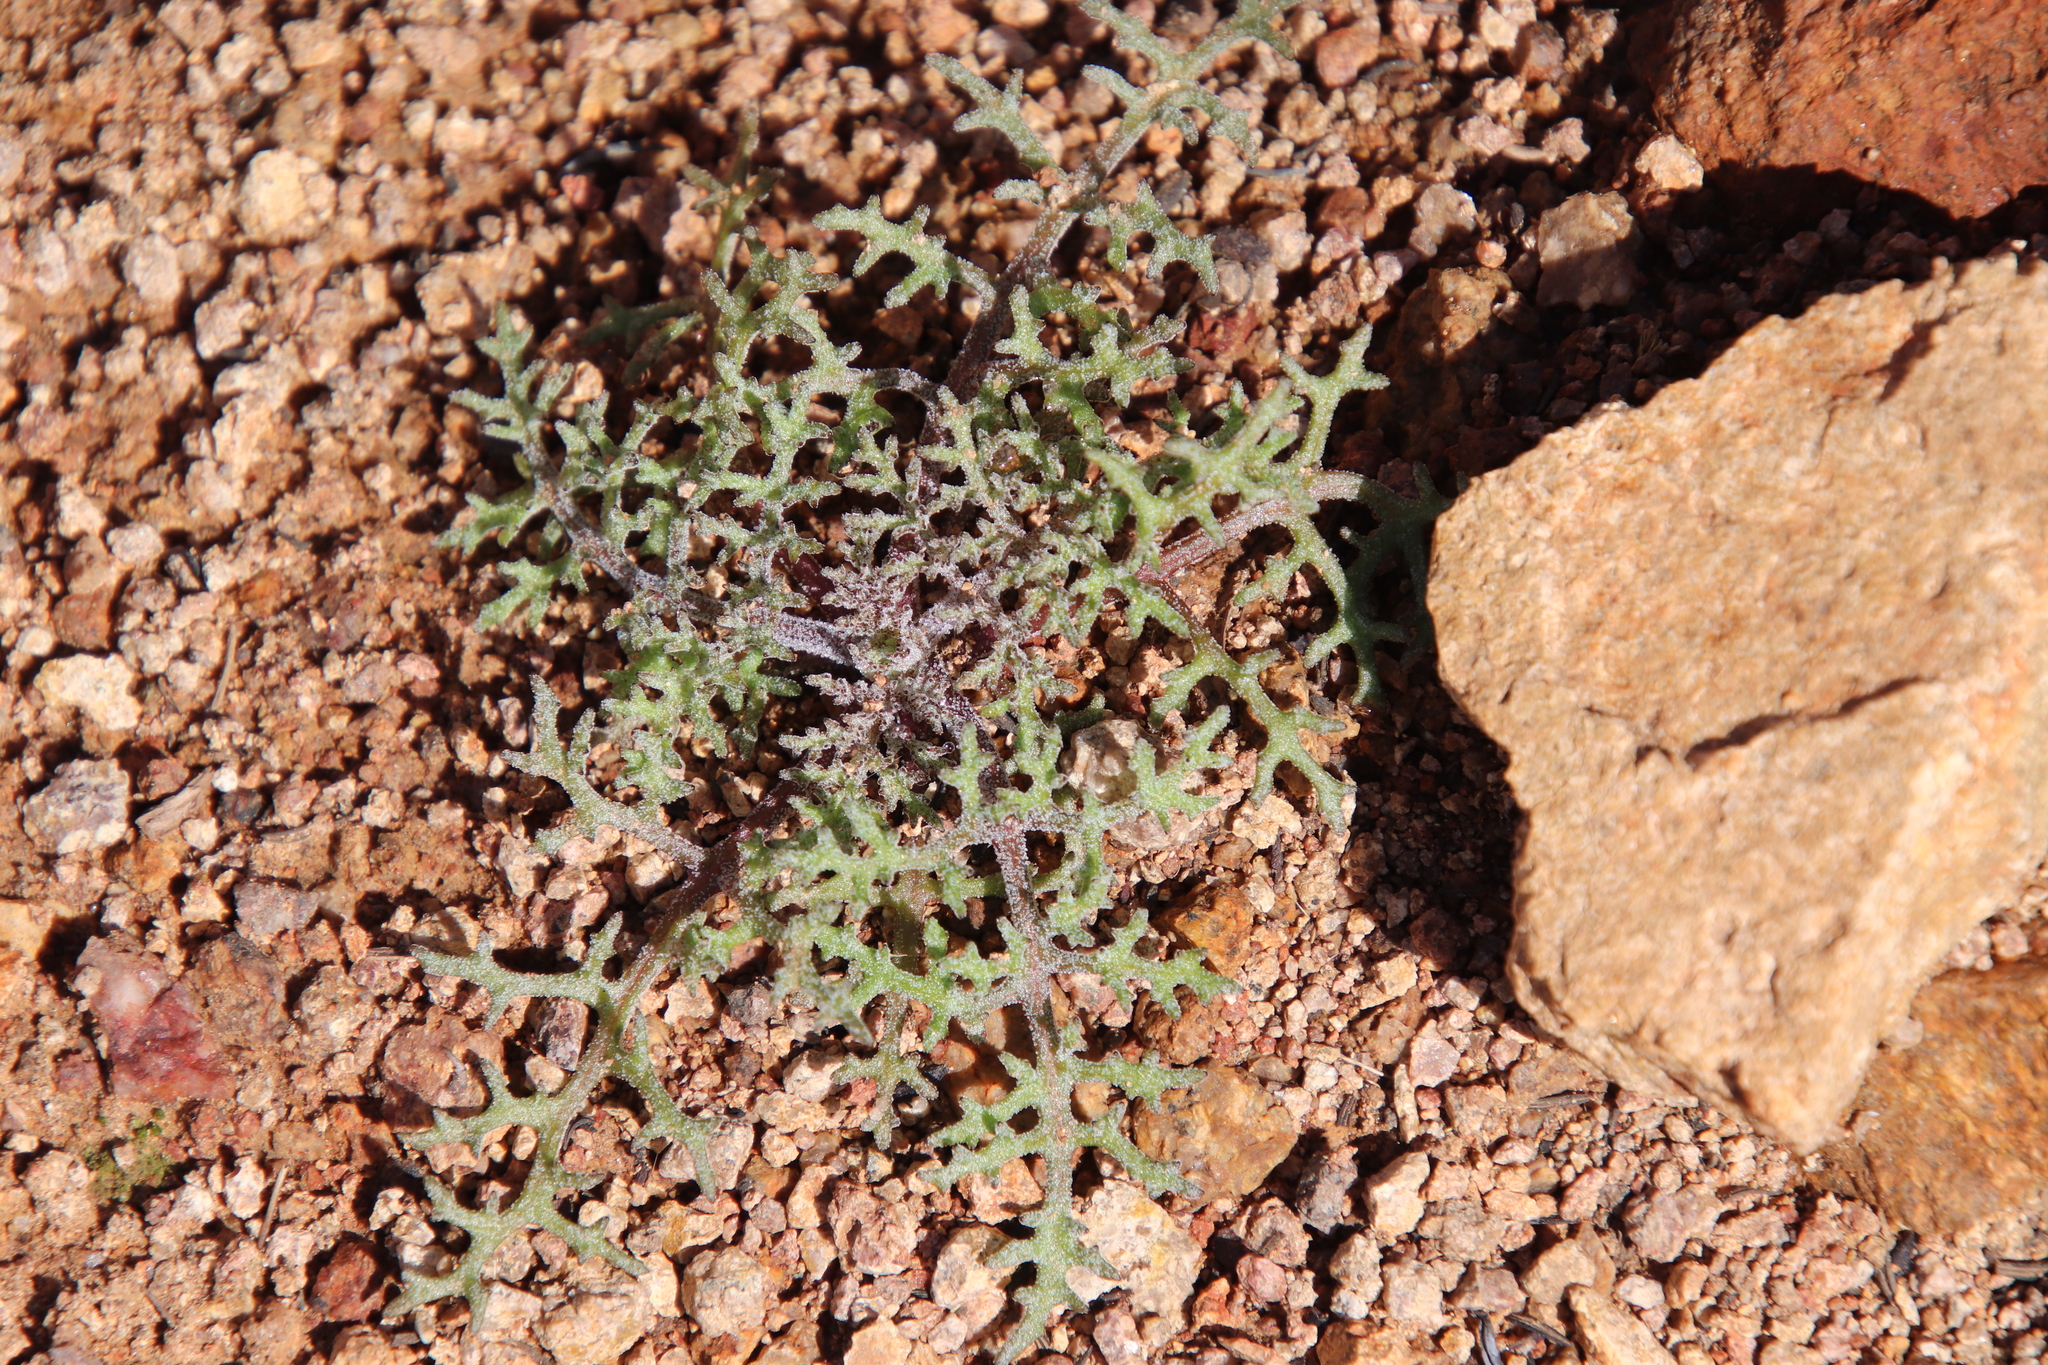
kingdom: Plantae
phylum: Tracheophyta
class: Magnoliopsida
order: Asterales
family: Asteraceae
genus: Chaenactis
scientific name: Chaenactis artemisiifolia
